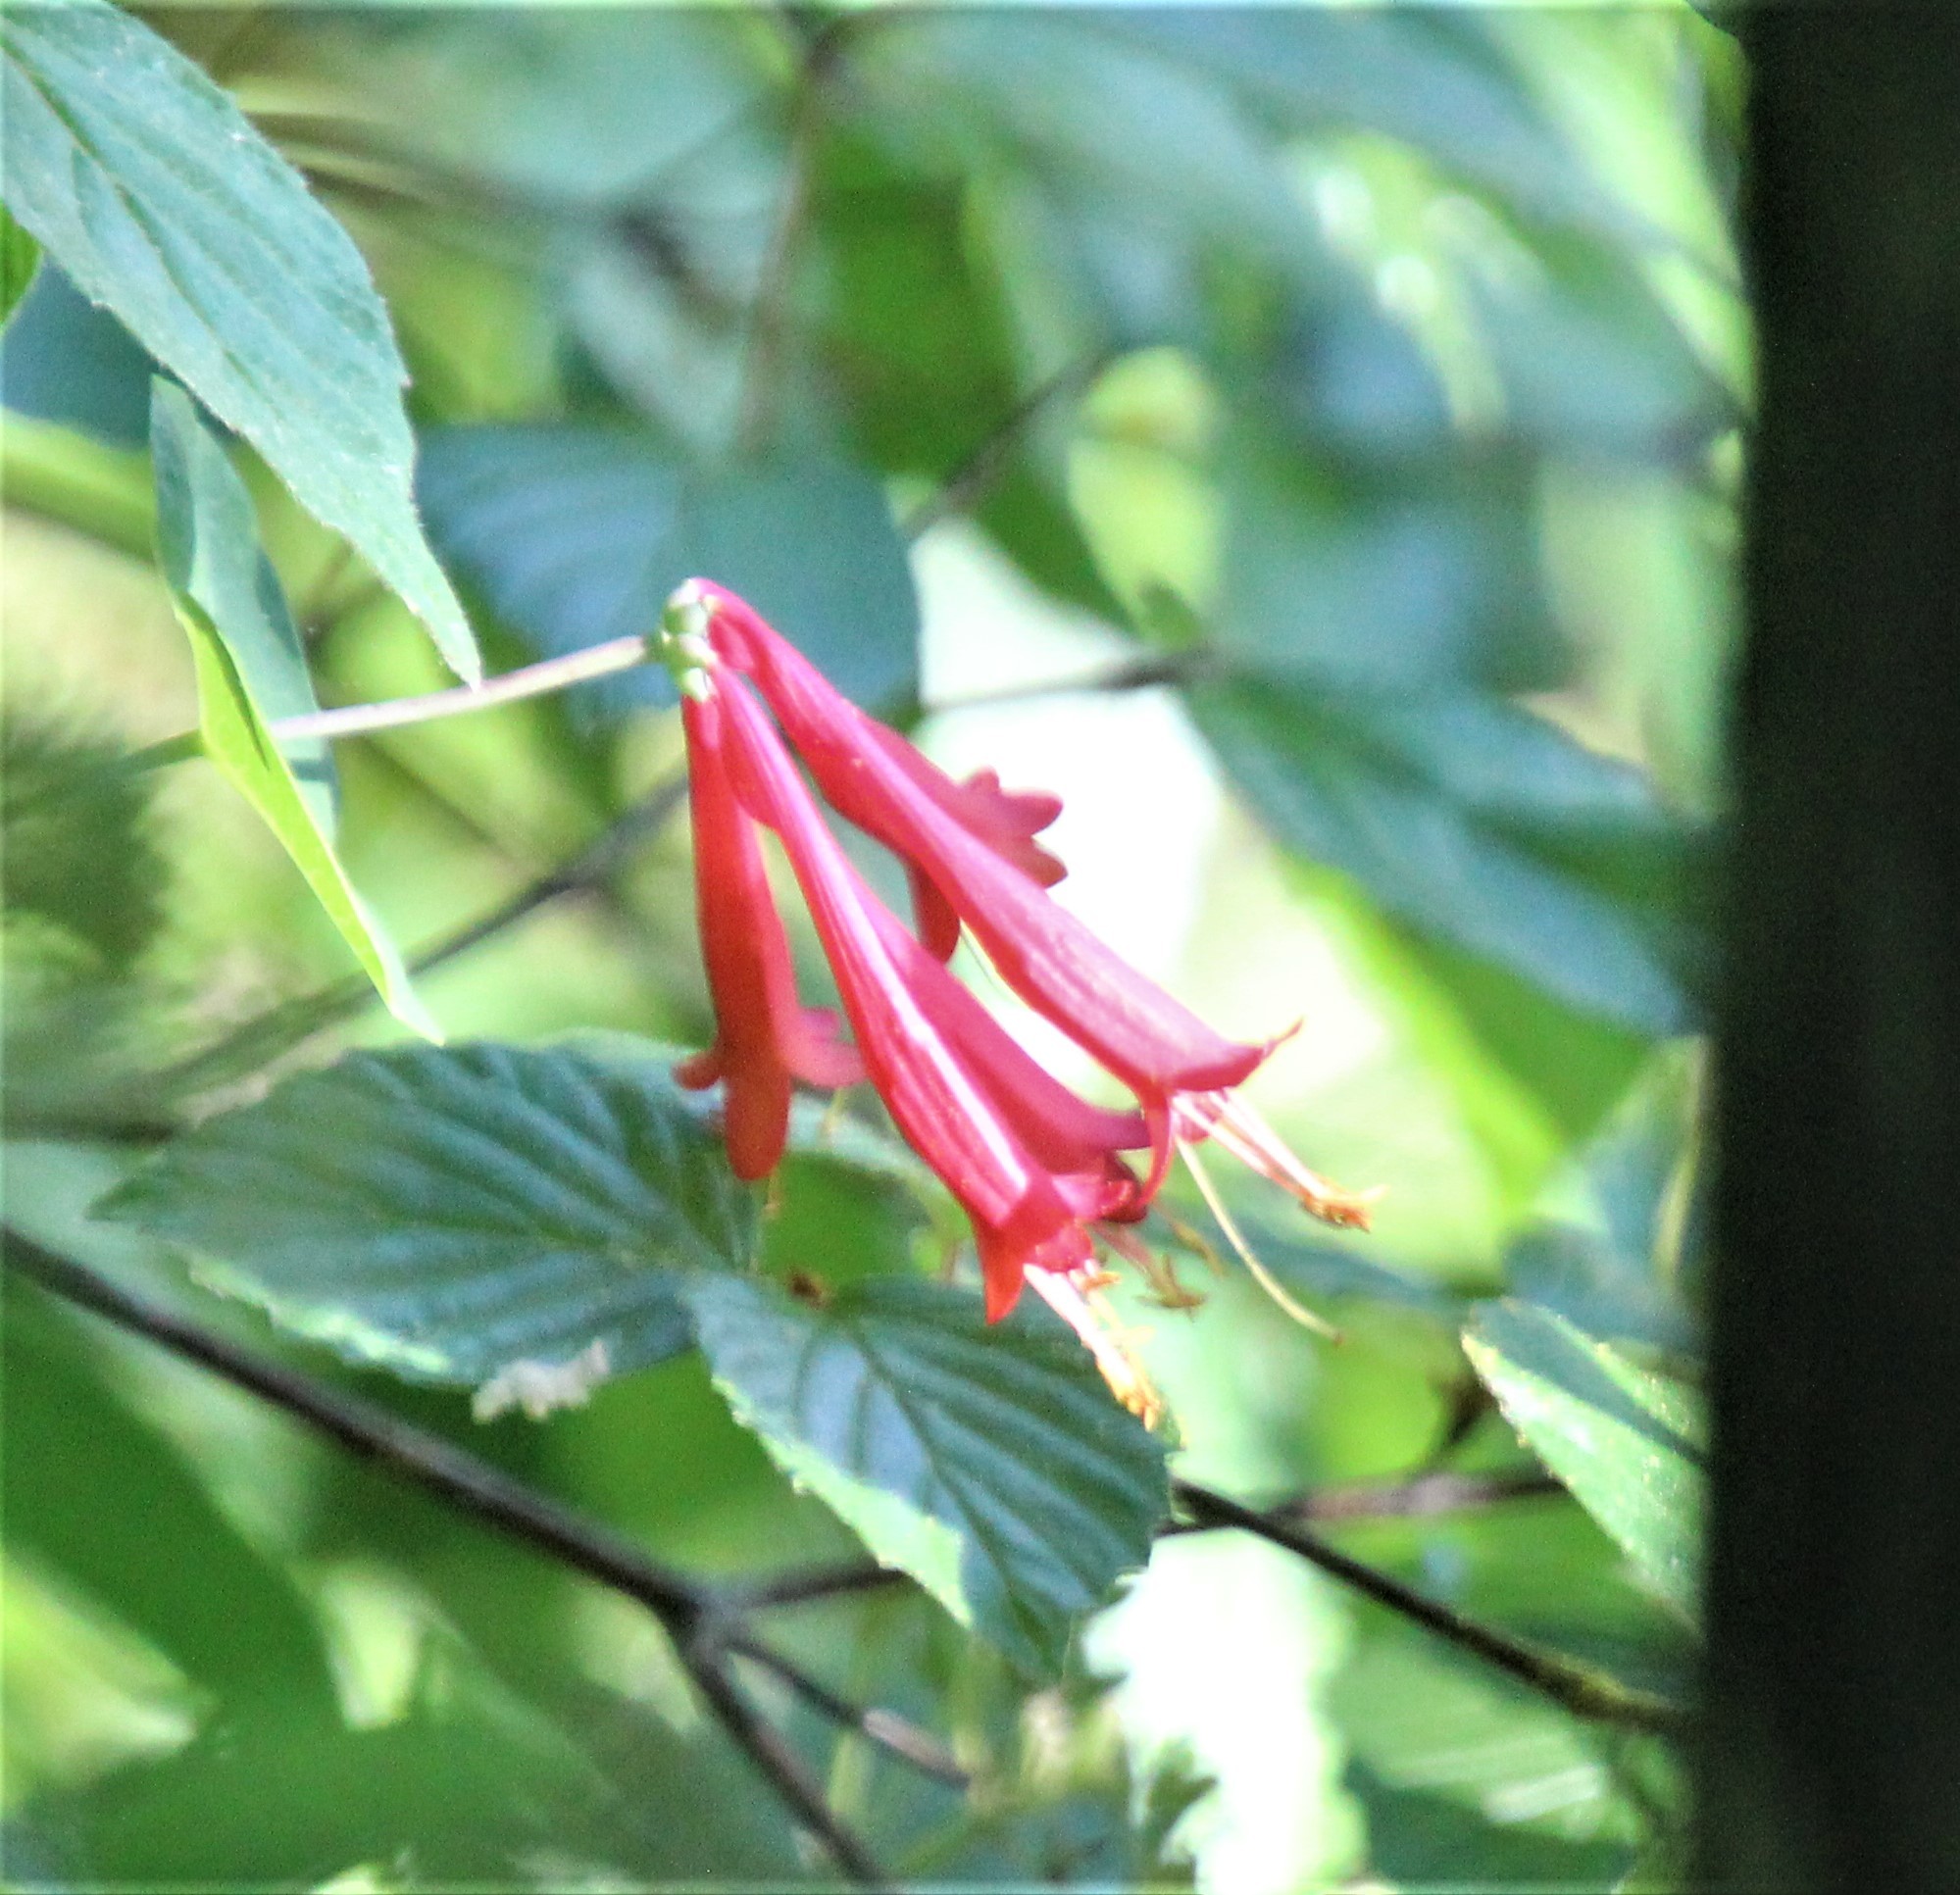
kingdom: Plantae
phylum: Tracheophyta
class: Magnoliopsida
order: Dipsacales
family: Caprifoliaceae
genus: Lonicera
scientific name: Lonicera sempervirens
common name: Coral honeysuckle
